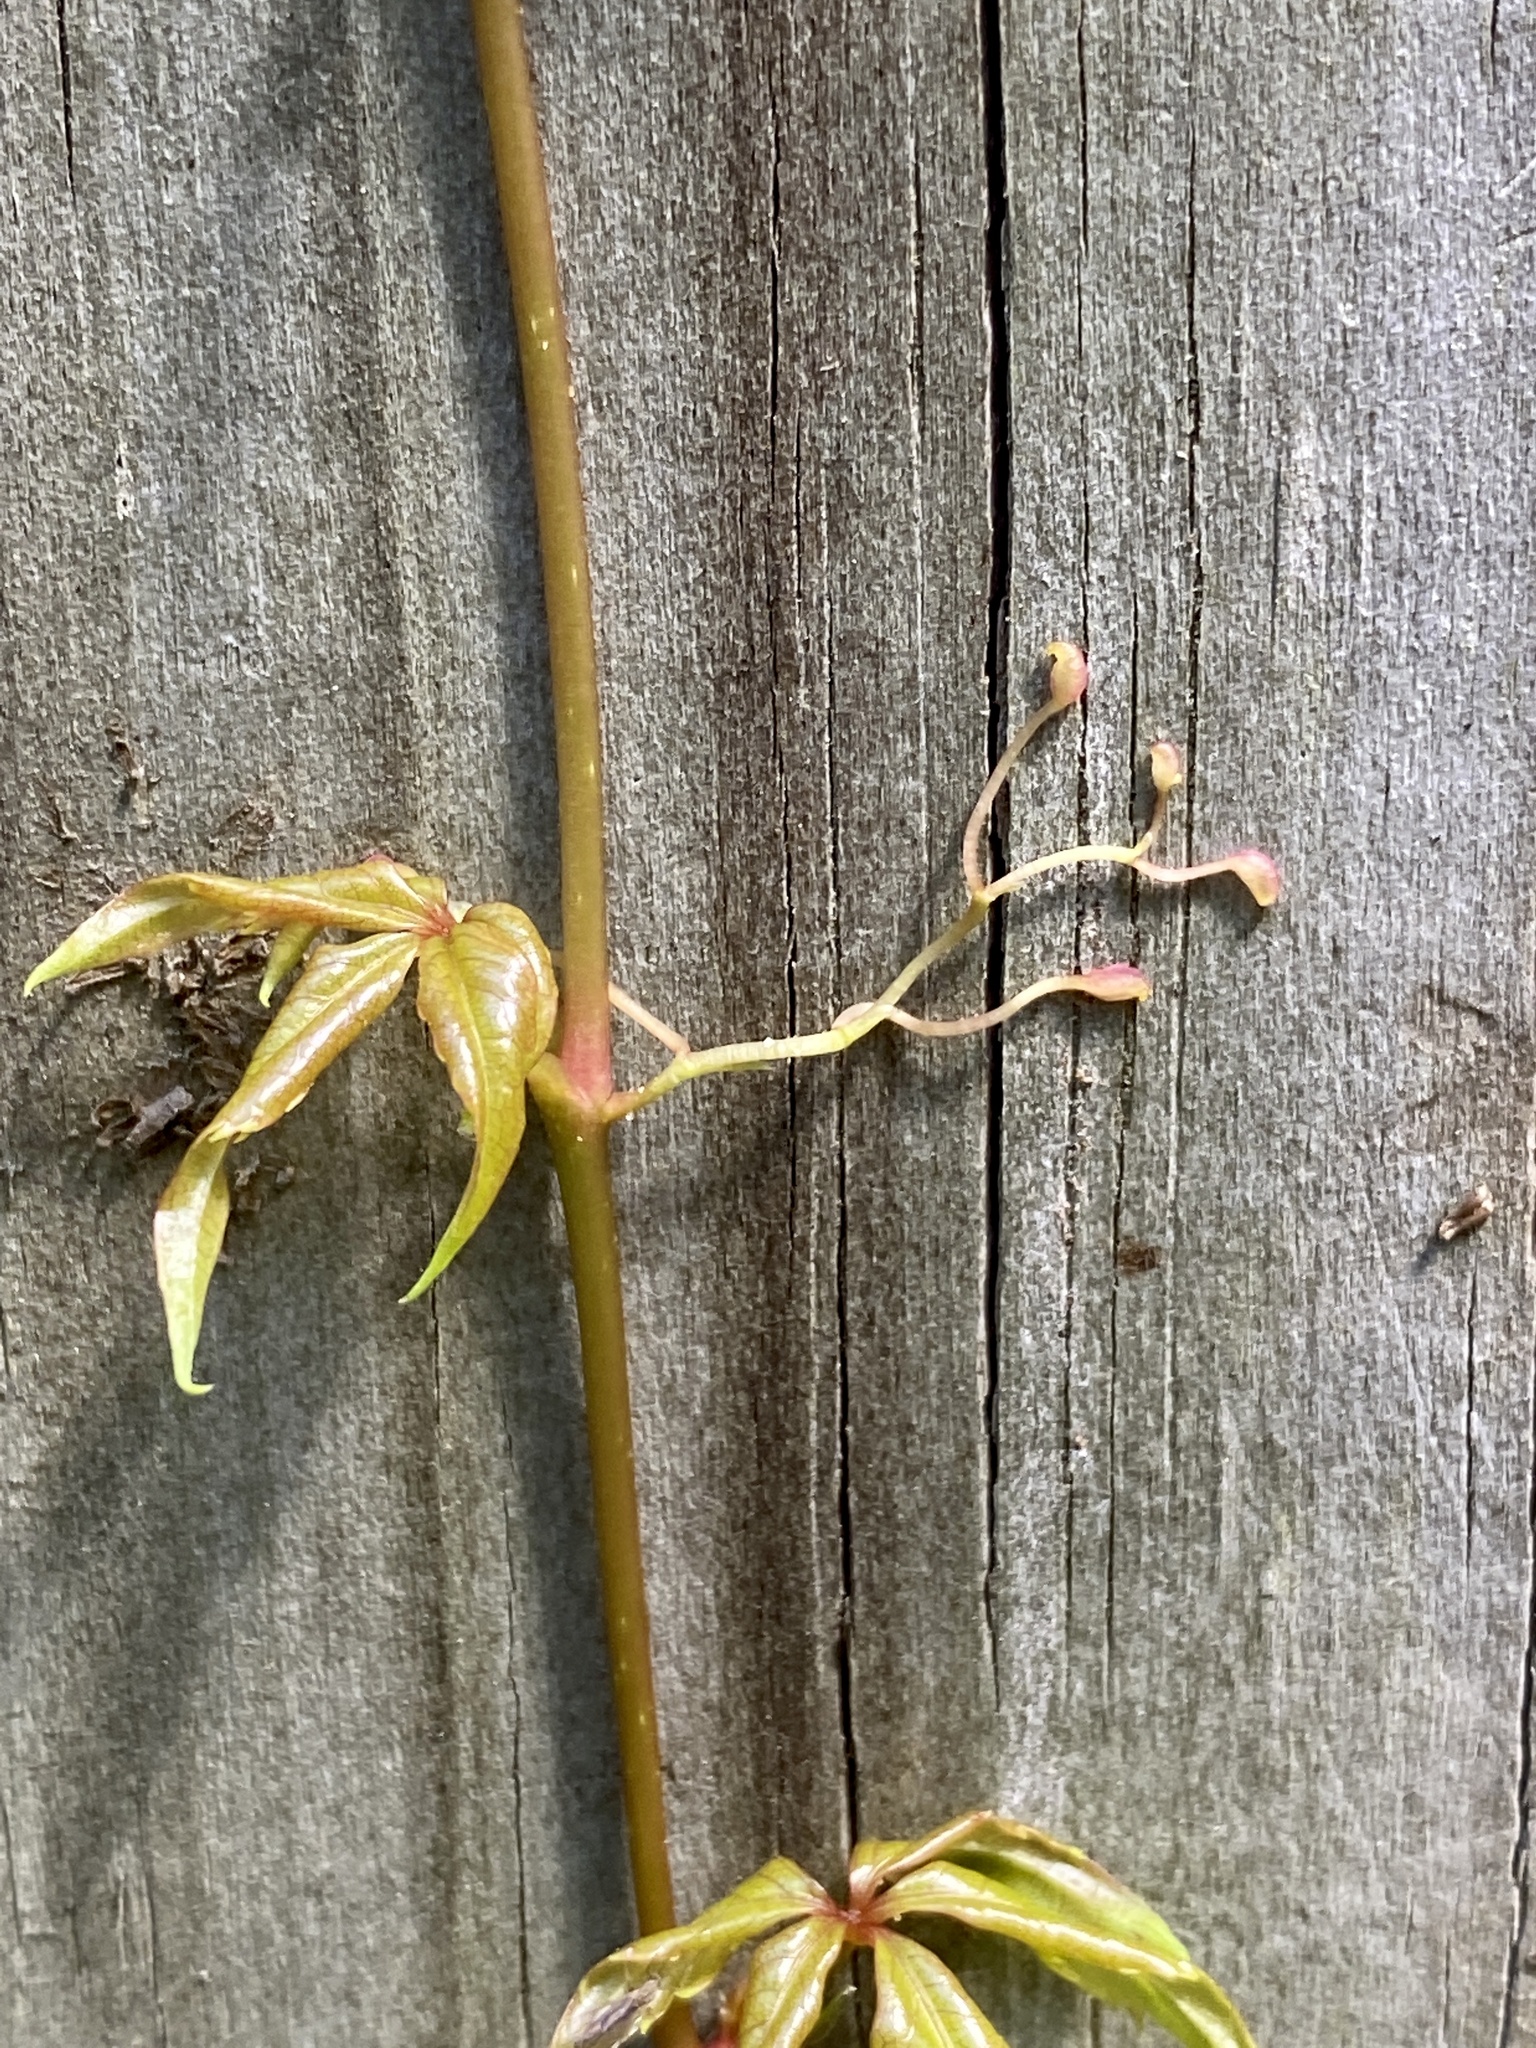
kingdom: Plantae
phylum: Tracheophyta
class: Magnoliopsida
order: Vitales
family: Vitaceae
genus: Parthenocissus
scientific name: Parthenocissus quinquefolia
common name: Virginia-creeper
